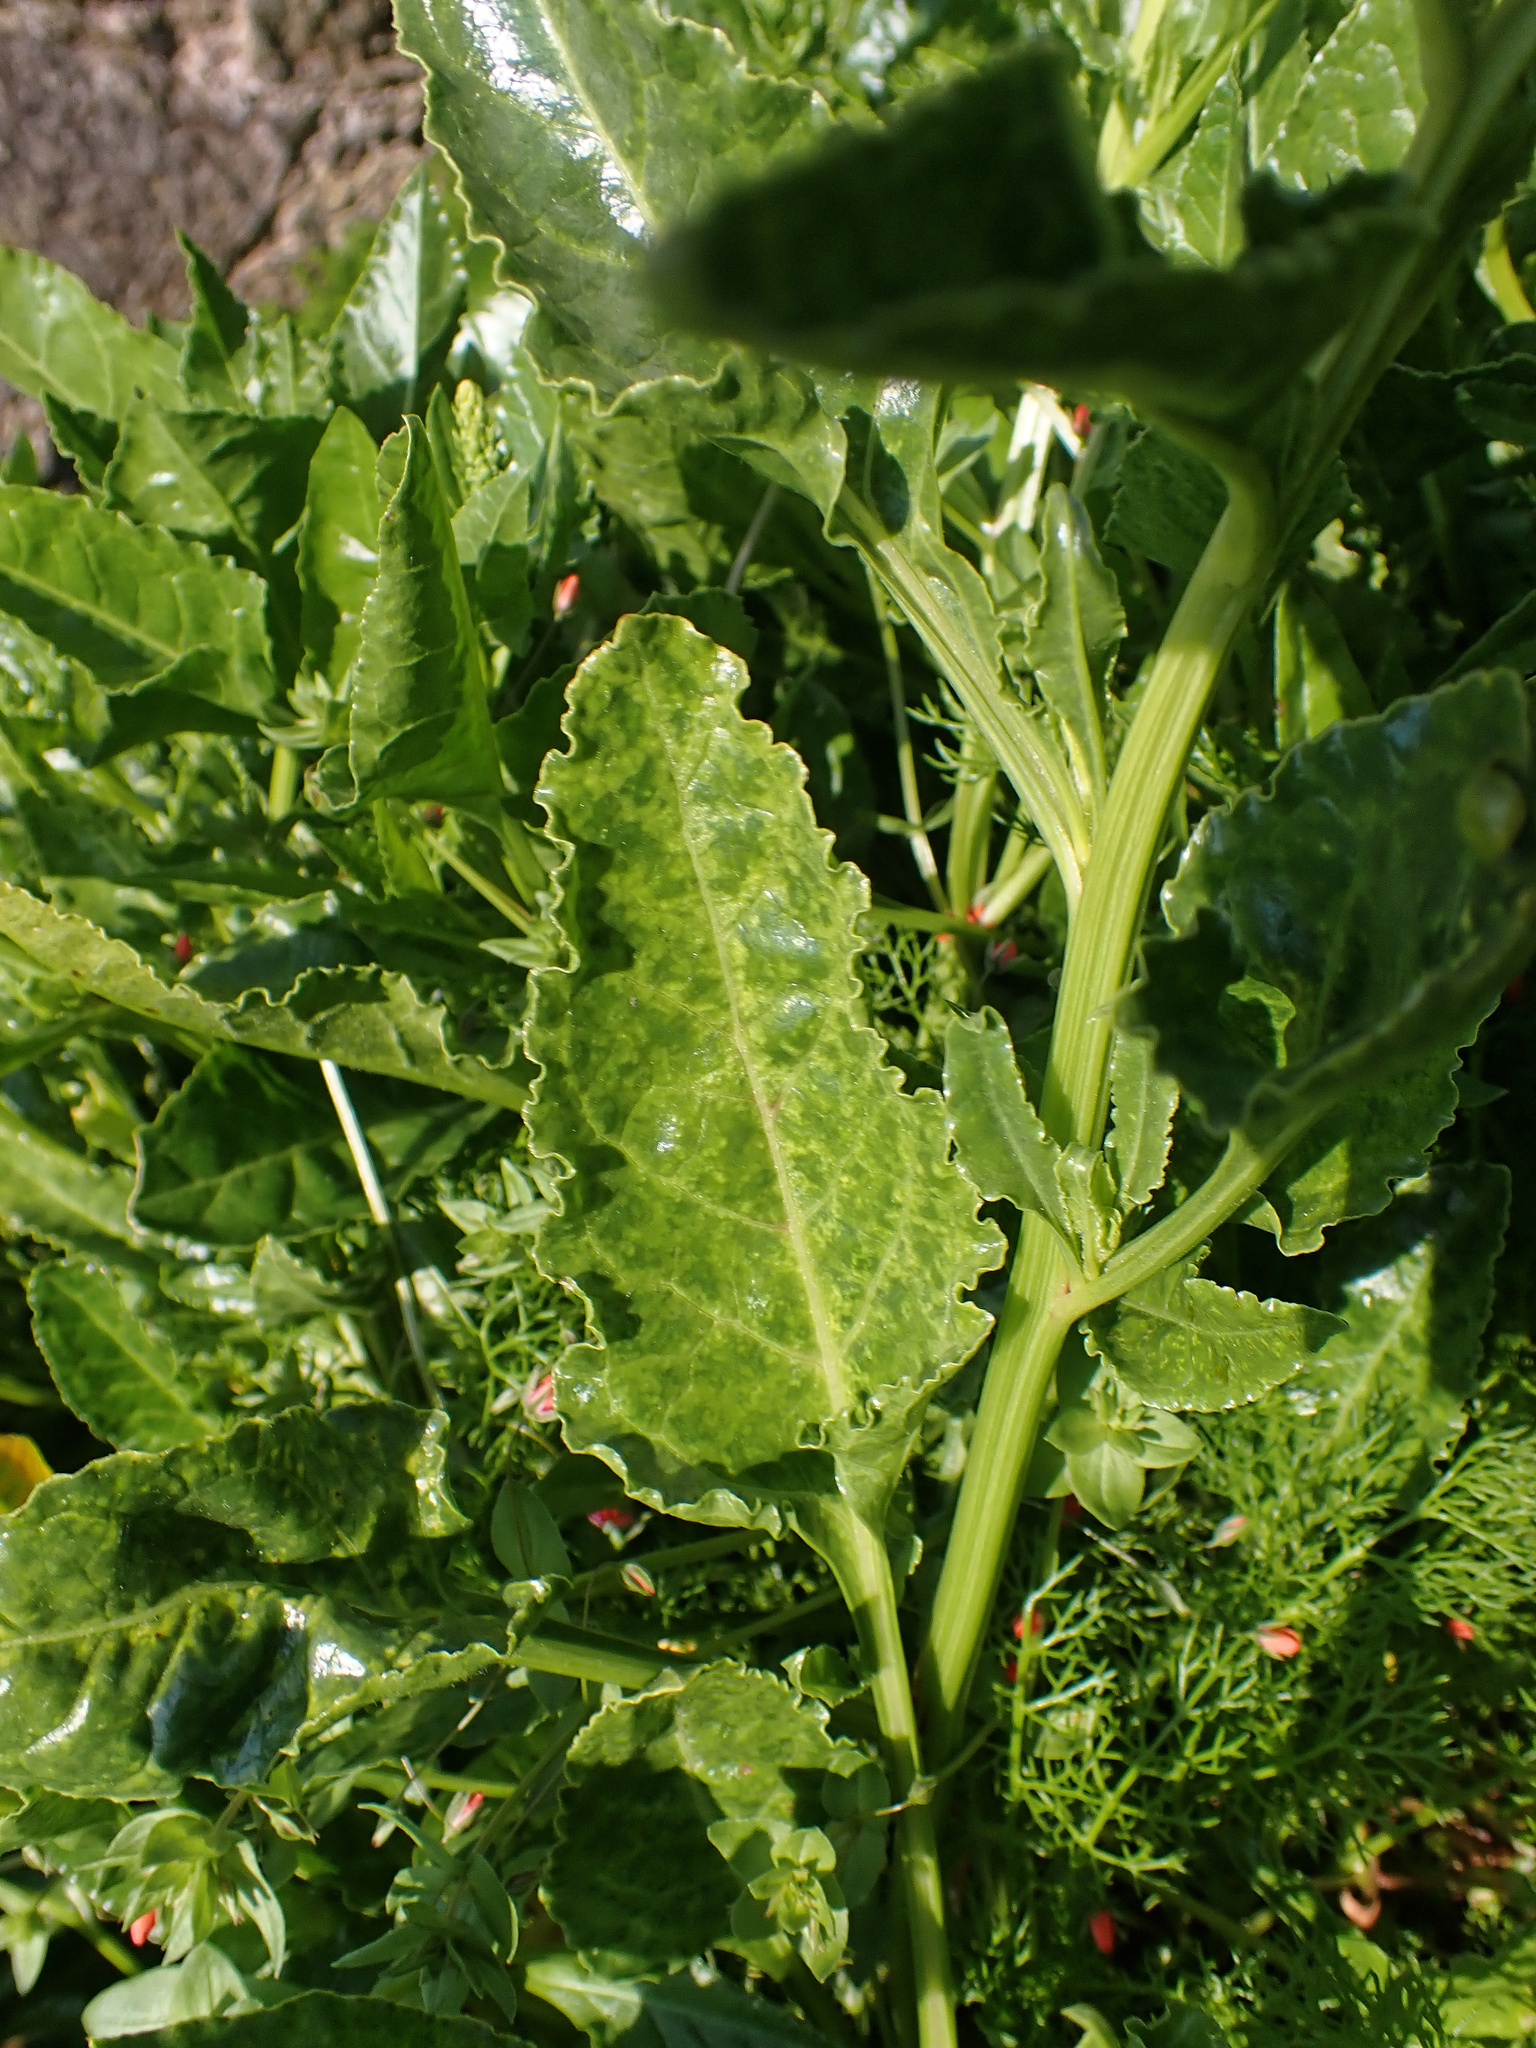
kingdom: Plantae
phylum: Tracheophyta
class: Magnoliopsida
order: Caryophyllales
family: Amaranthaceae
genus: Beta
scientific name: Beta vulgaris
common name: Beet
